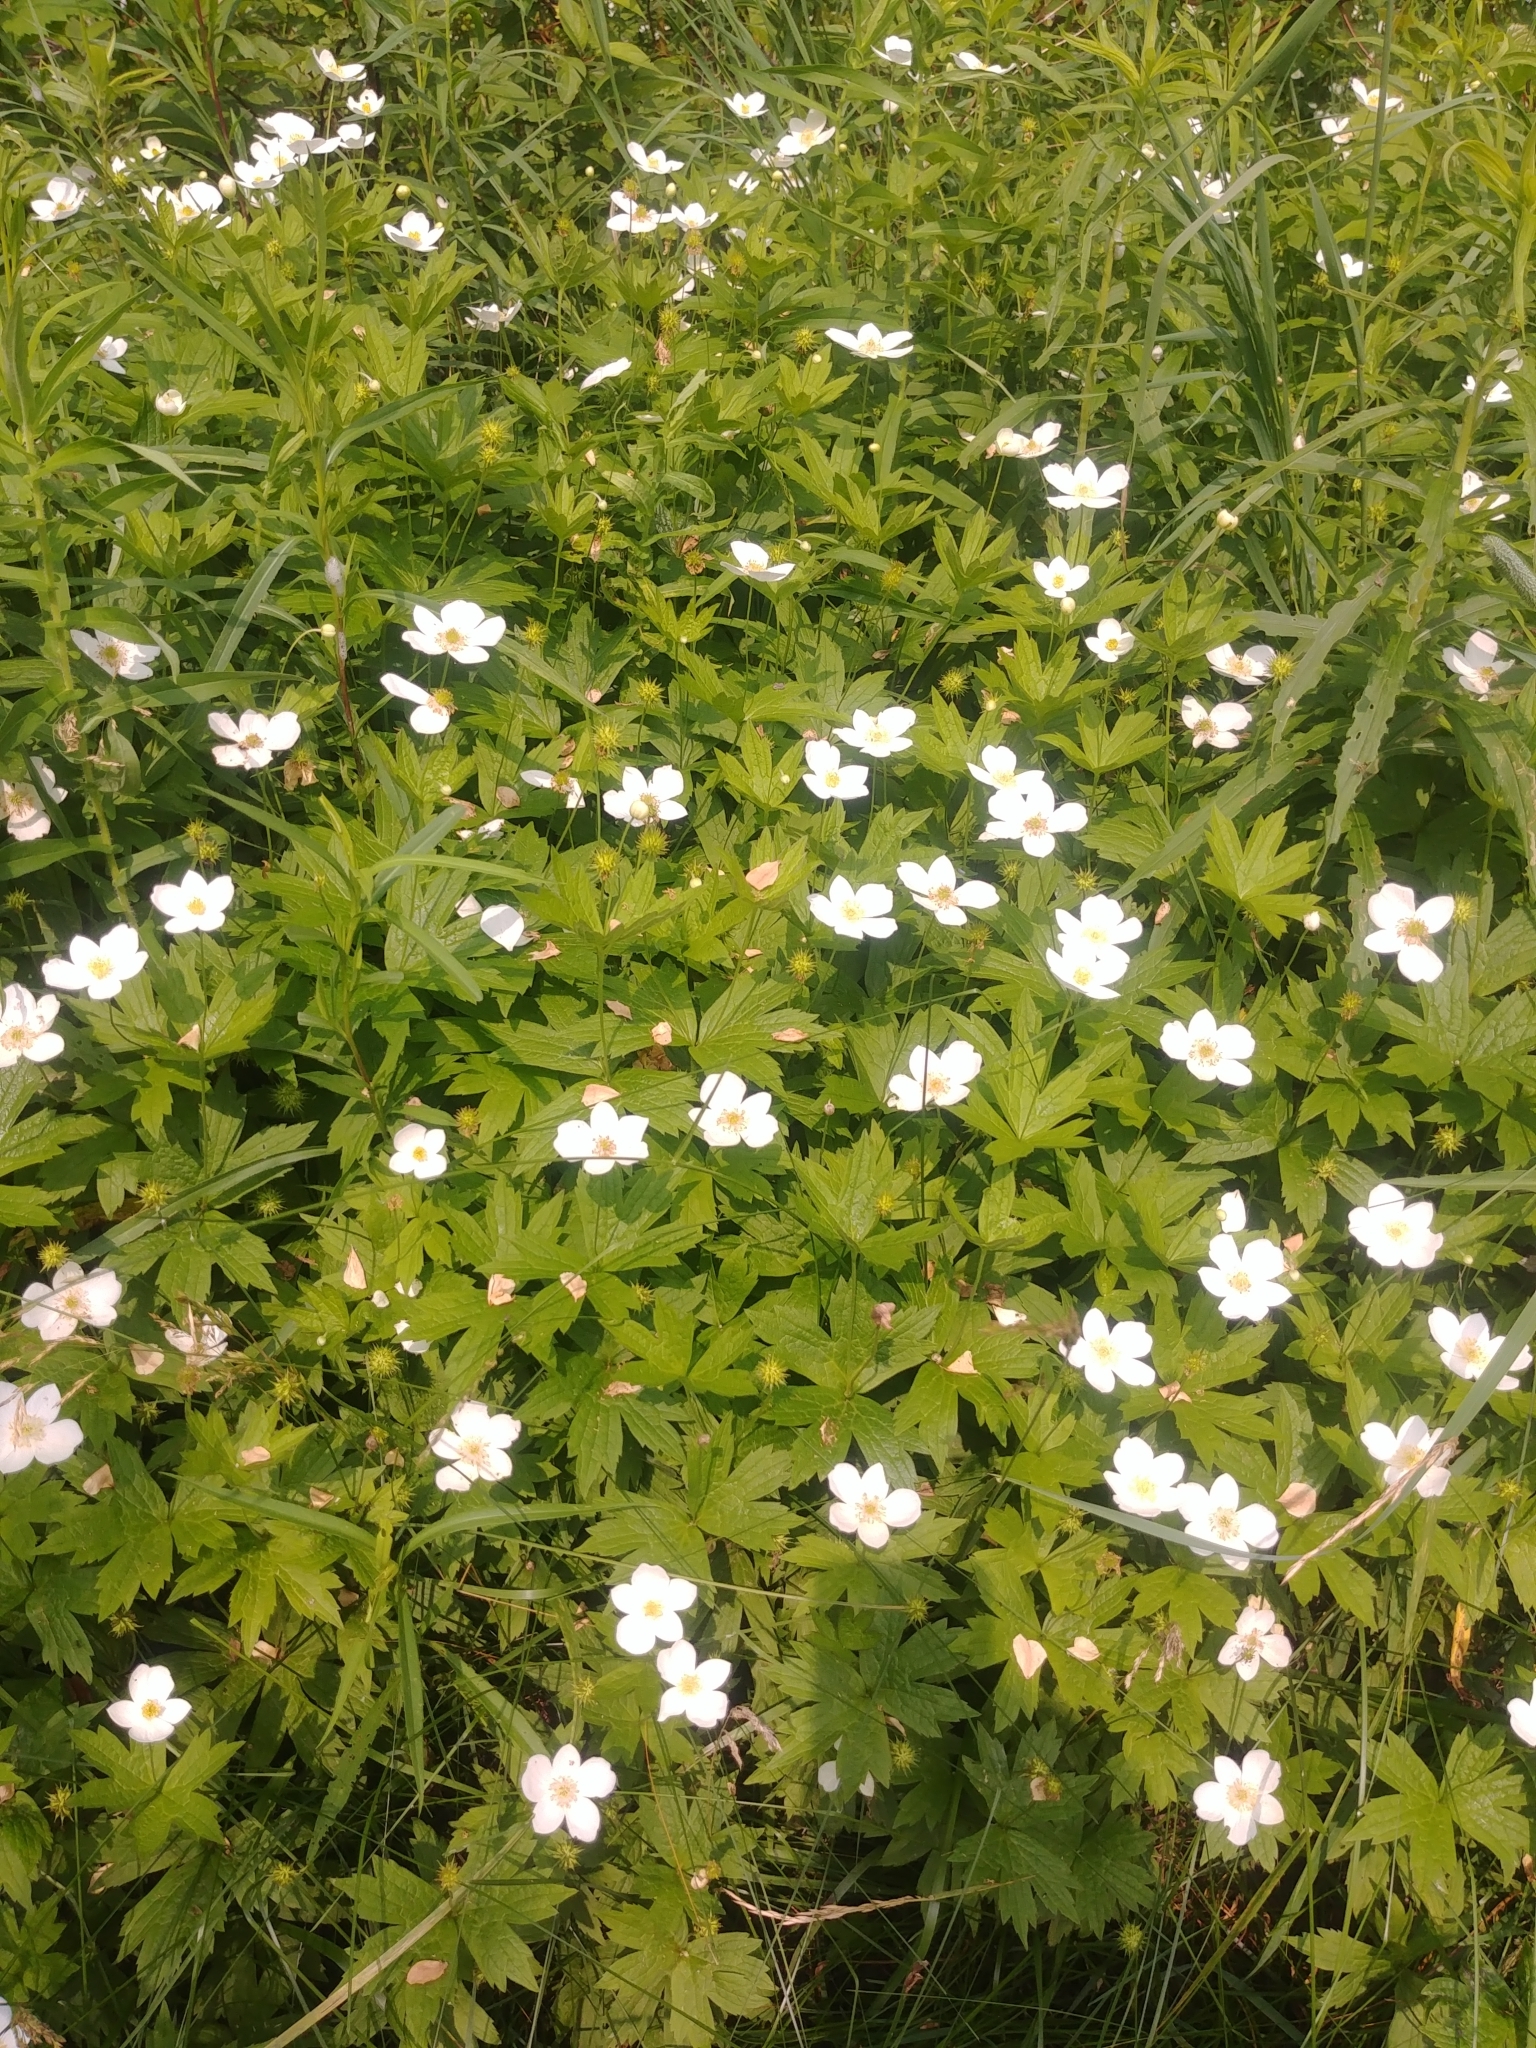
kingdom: Plantae
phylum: Tracheophyta
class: Magnoliopsida
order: Ranunculales
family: Ranunculaceae
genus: Anemonastrum
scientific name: Anemonastrum canadense
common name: Canada anemone
